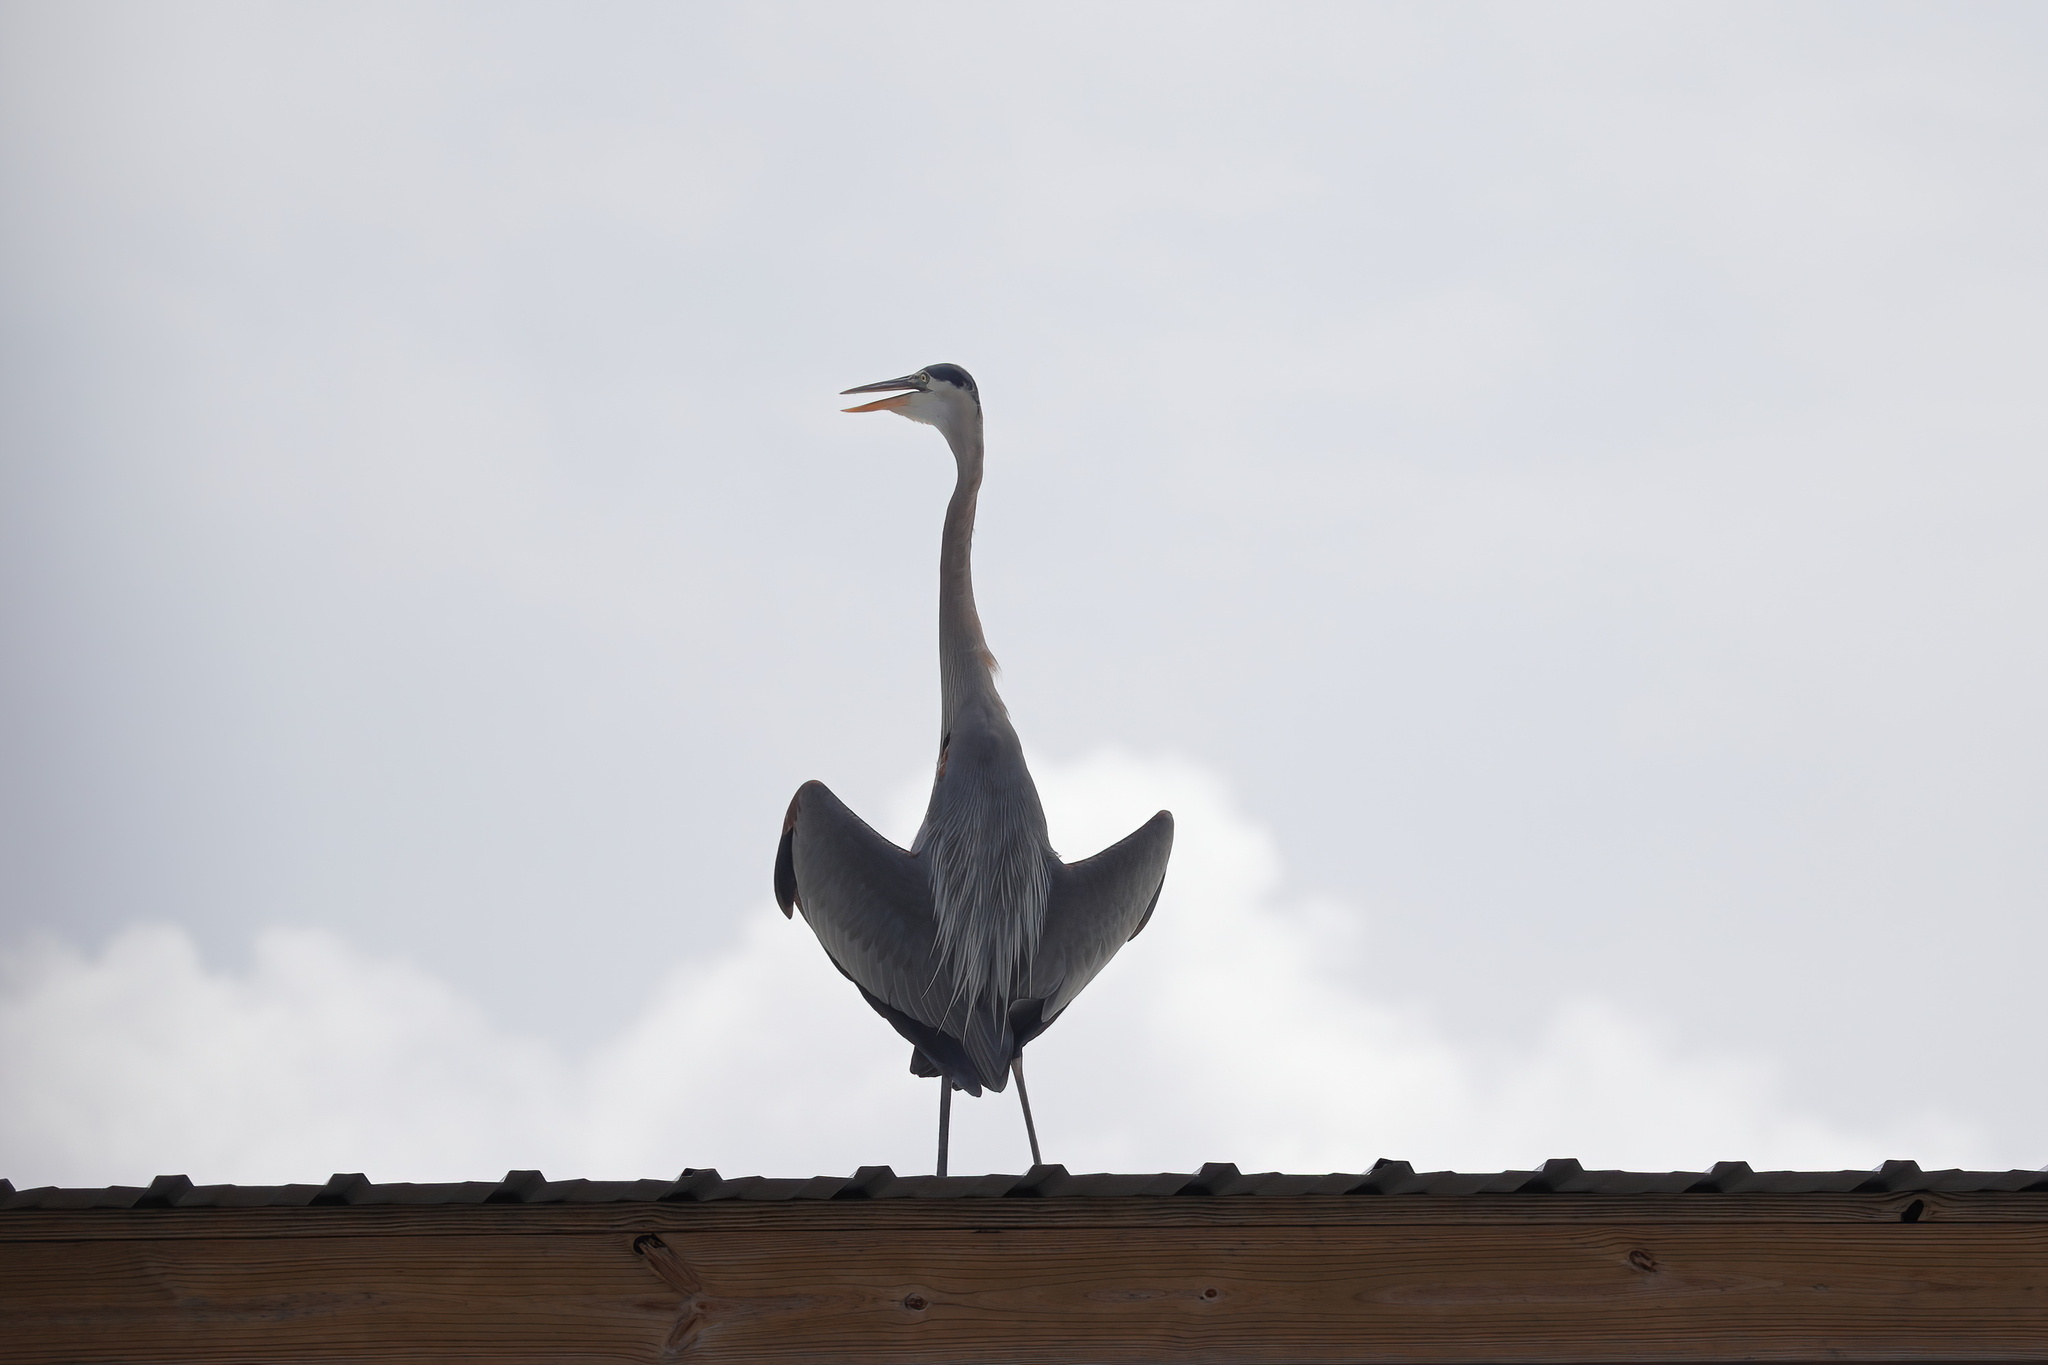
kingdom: Animalia
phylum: Chordata
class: Aves
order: Pelecaniformes
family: Ardeidae
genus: Ardea
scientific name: Ardea herodias
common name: Great blue heron
